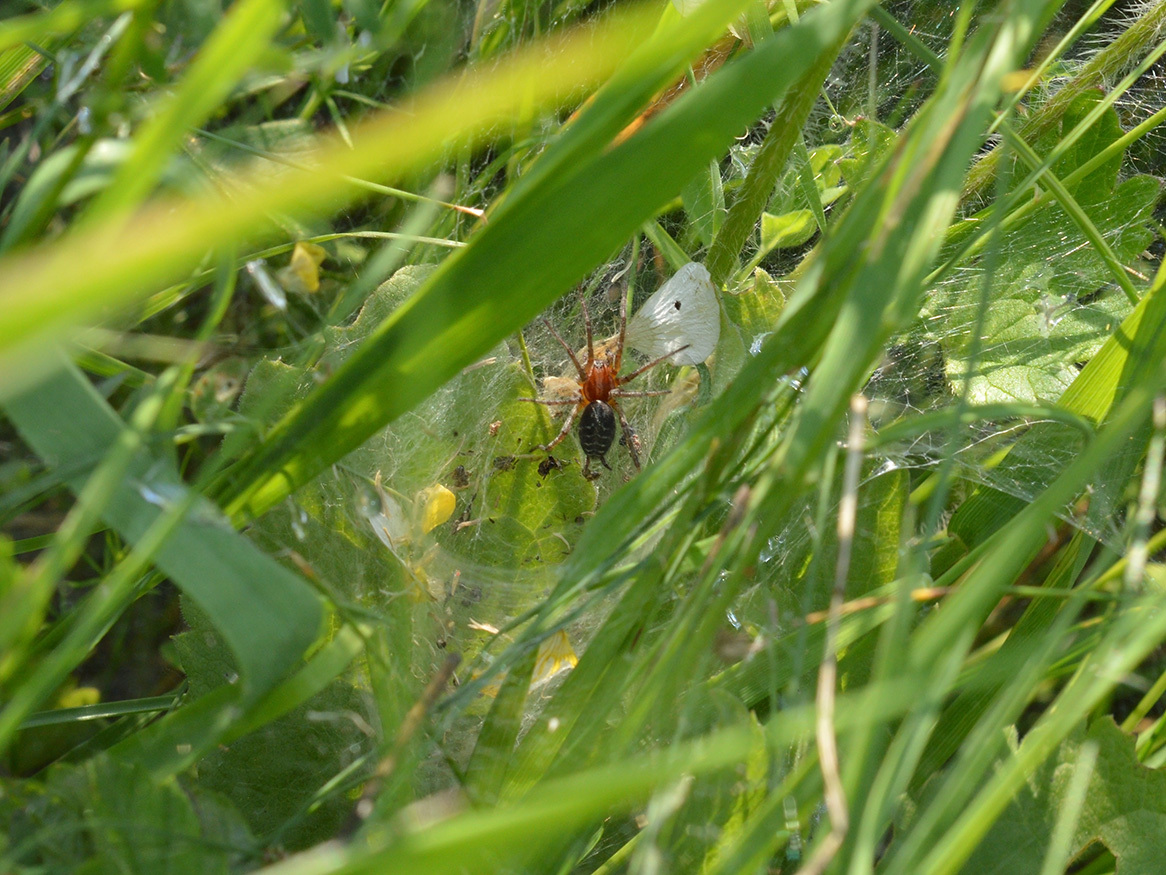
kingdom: Animalia
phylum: Arthropoda
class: Arachnida
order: Araneae
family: Agelenidae
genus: Agelena
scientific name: Agelena labyrinthica
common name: Labyrinth spider
